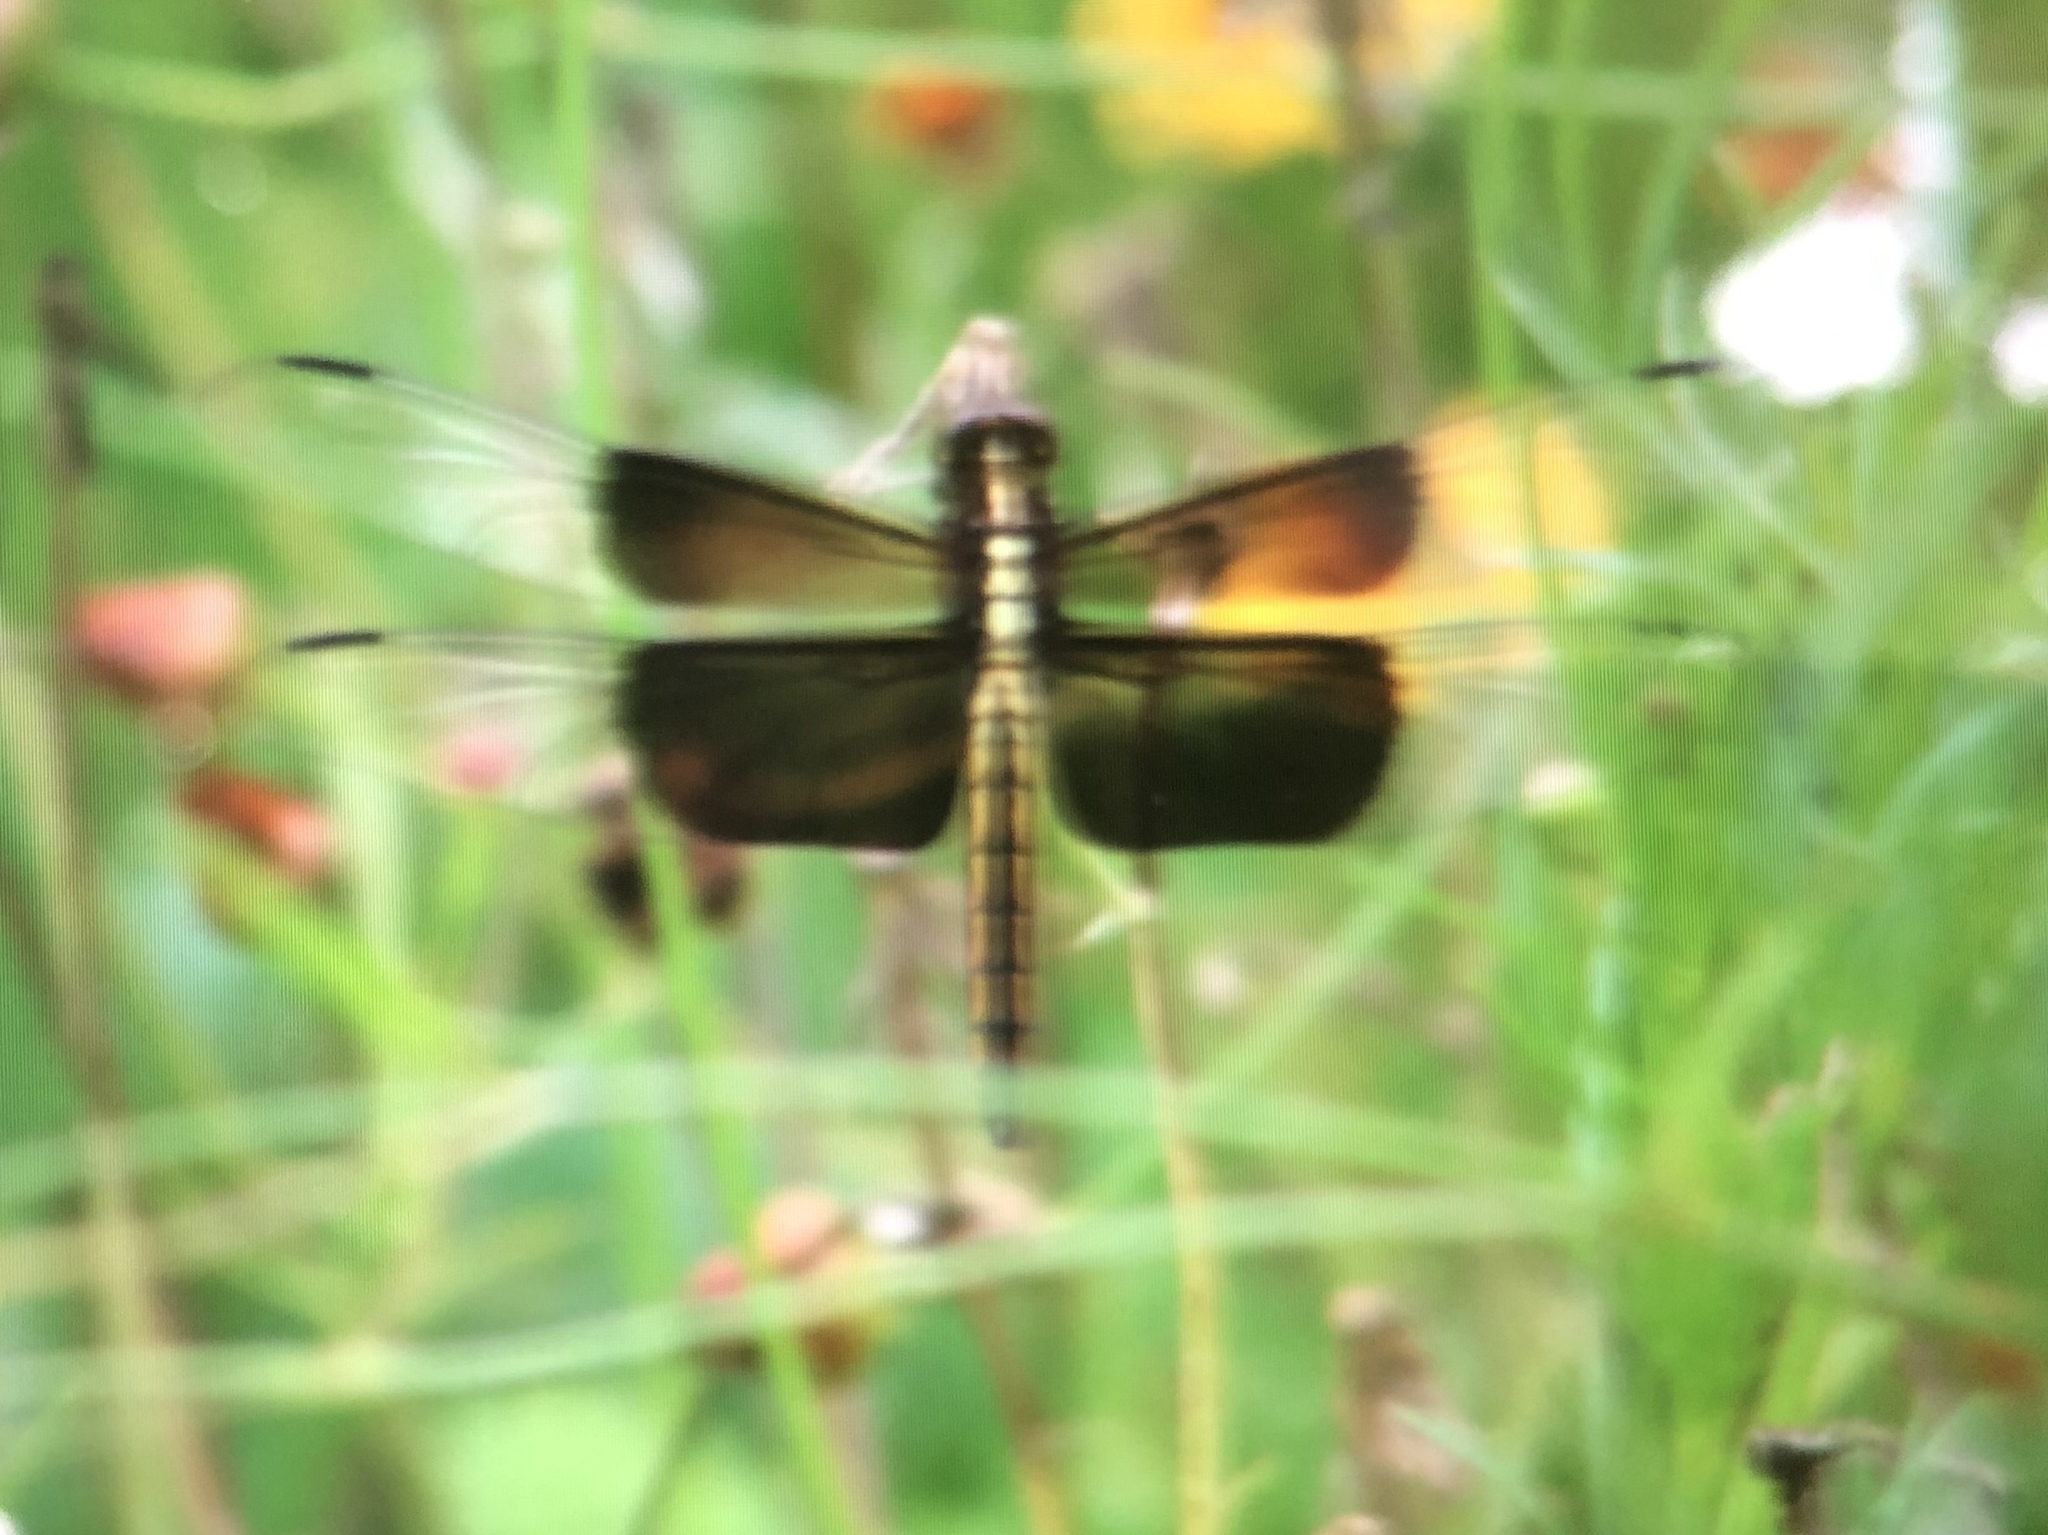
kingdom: Animalia
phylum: Arthropoda
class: Insecta
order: Odonata
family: Libellulidae
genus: Libellula
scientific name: Libellula luctuosa
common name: Widow skimmer
